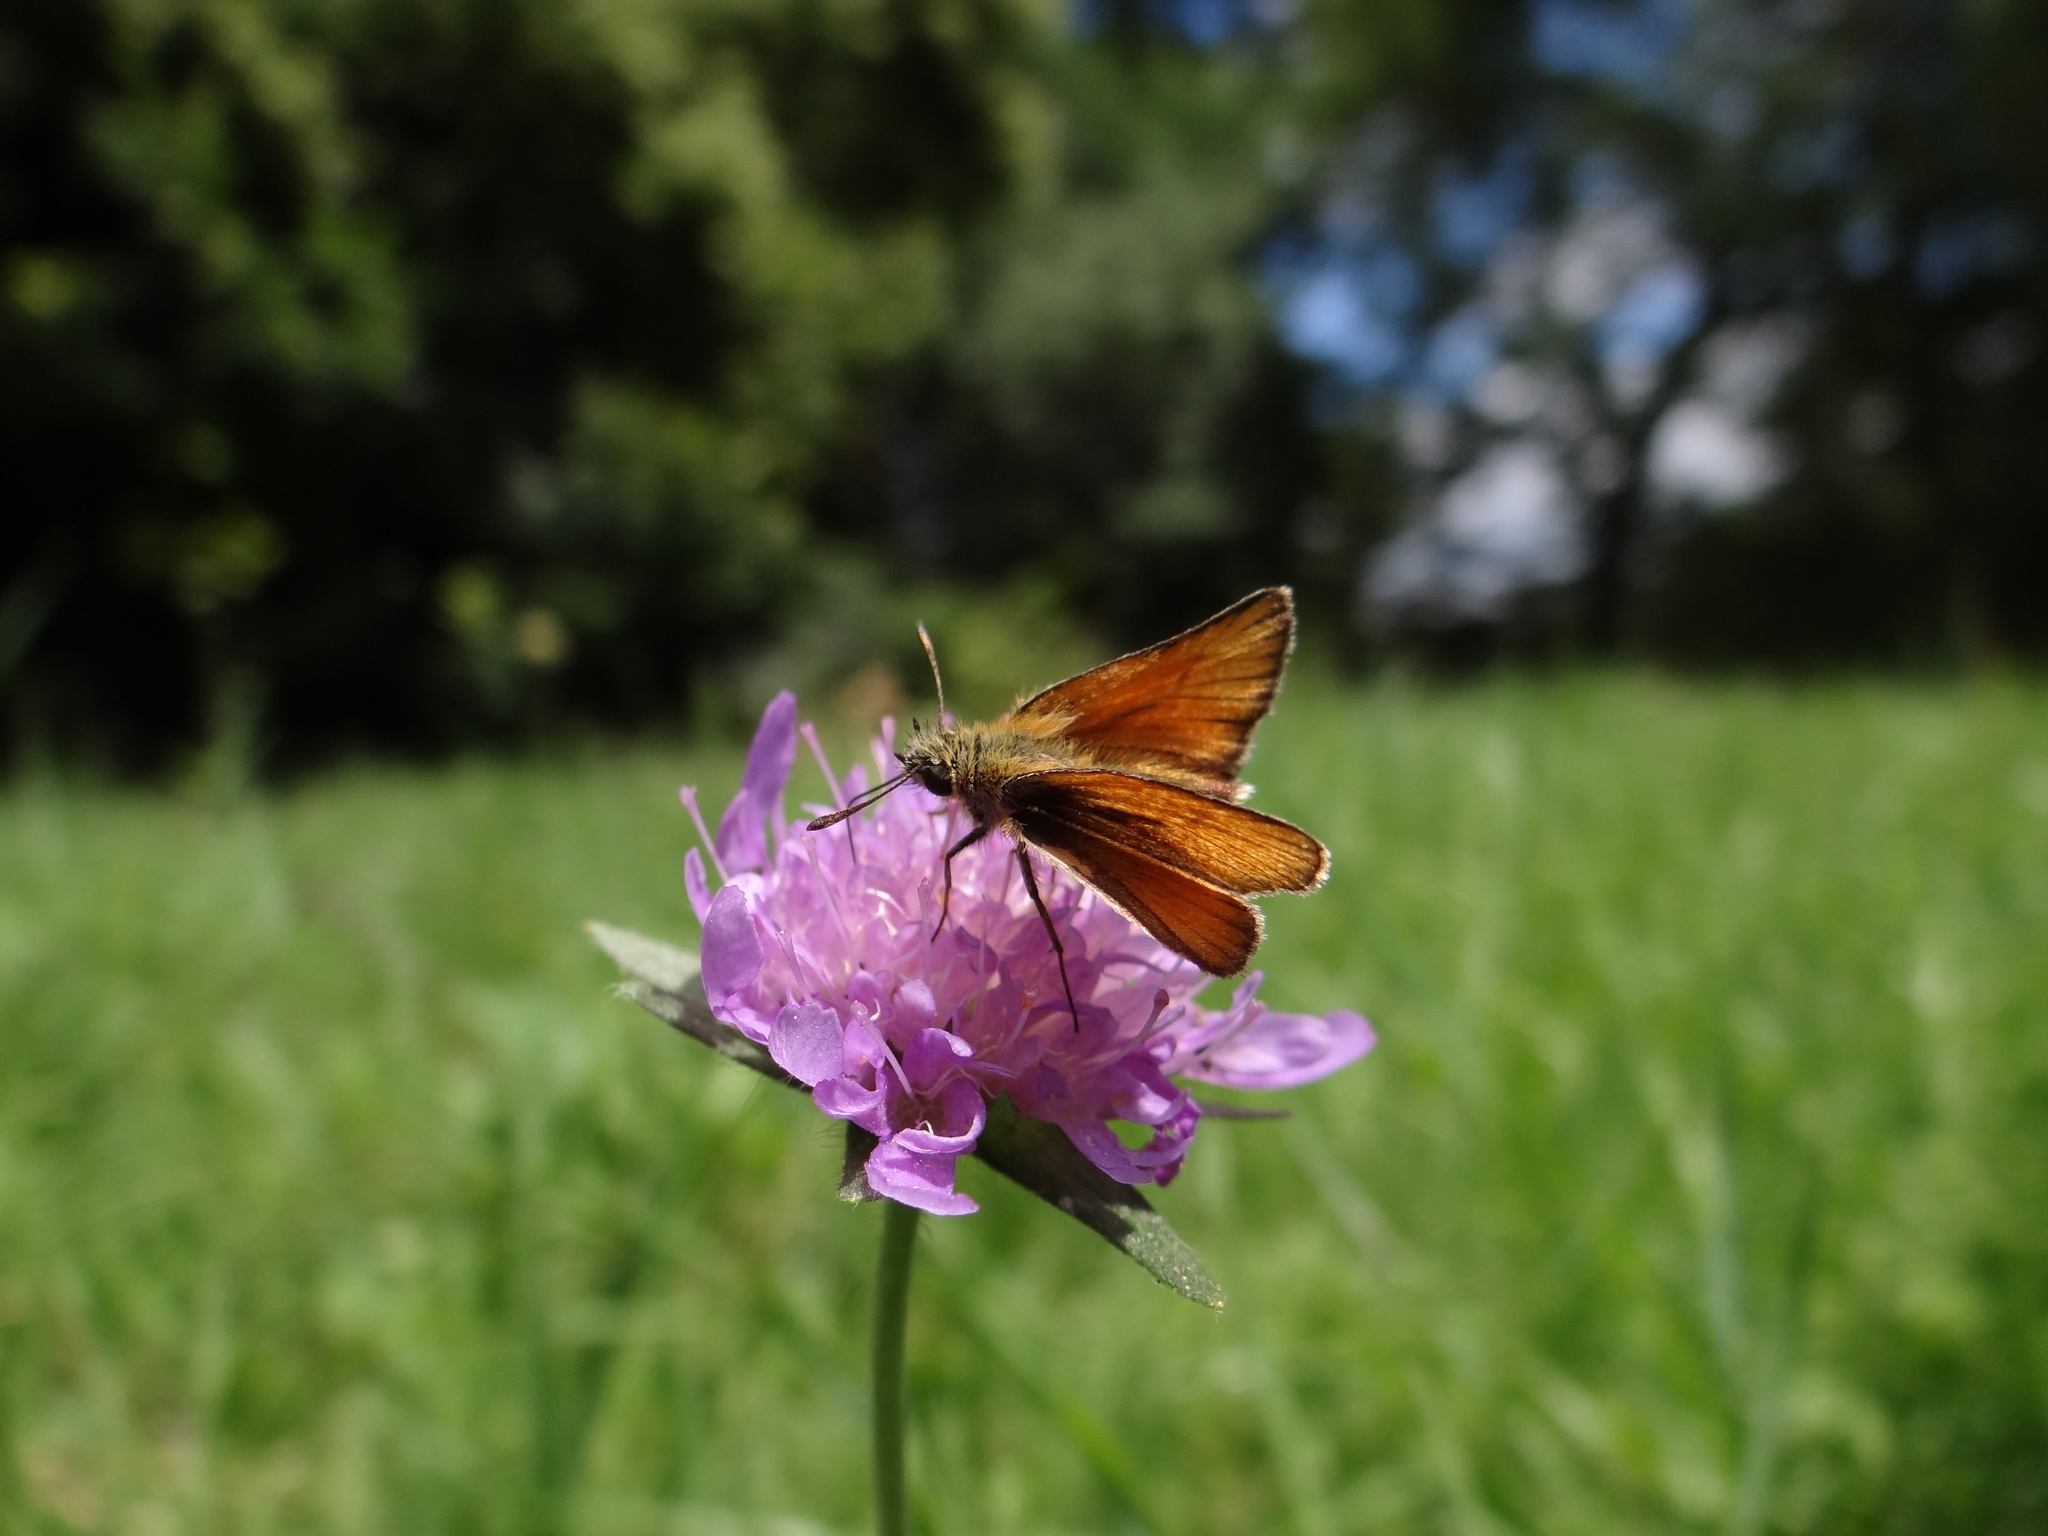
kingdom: Animalia
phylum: Arthropoda
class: Insecta
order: Lepidoptera
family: Hesperiidae
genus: Thymelicus
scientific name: Thymelicus lineola
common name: Essex skipper
